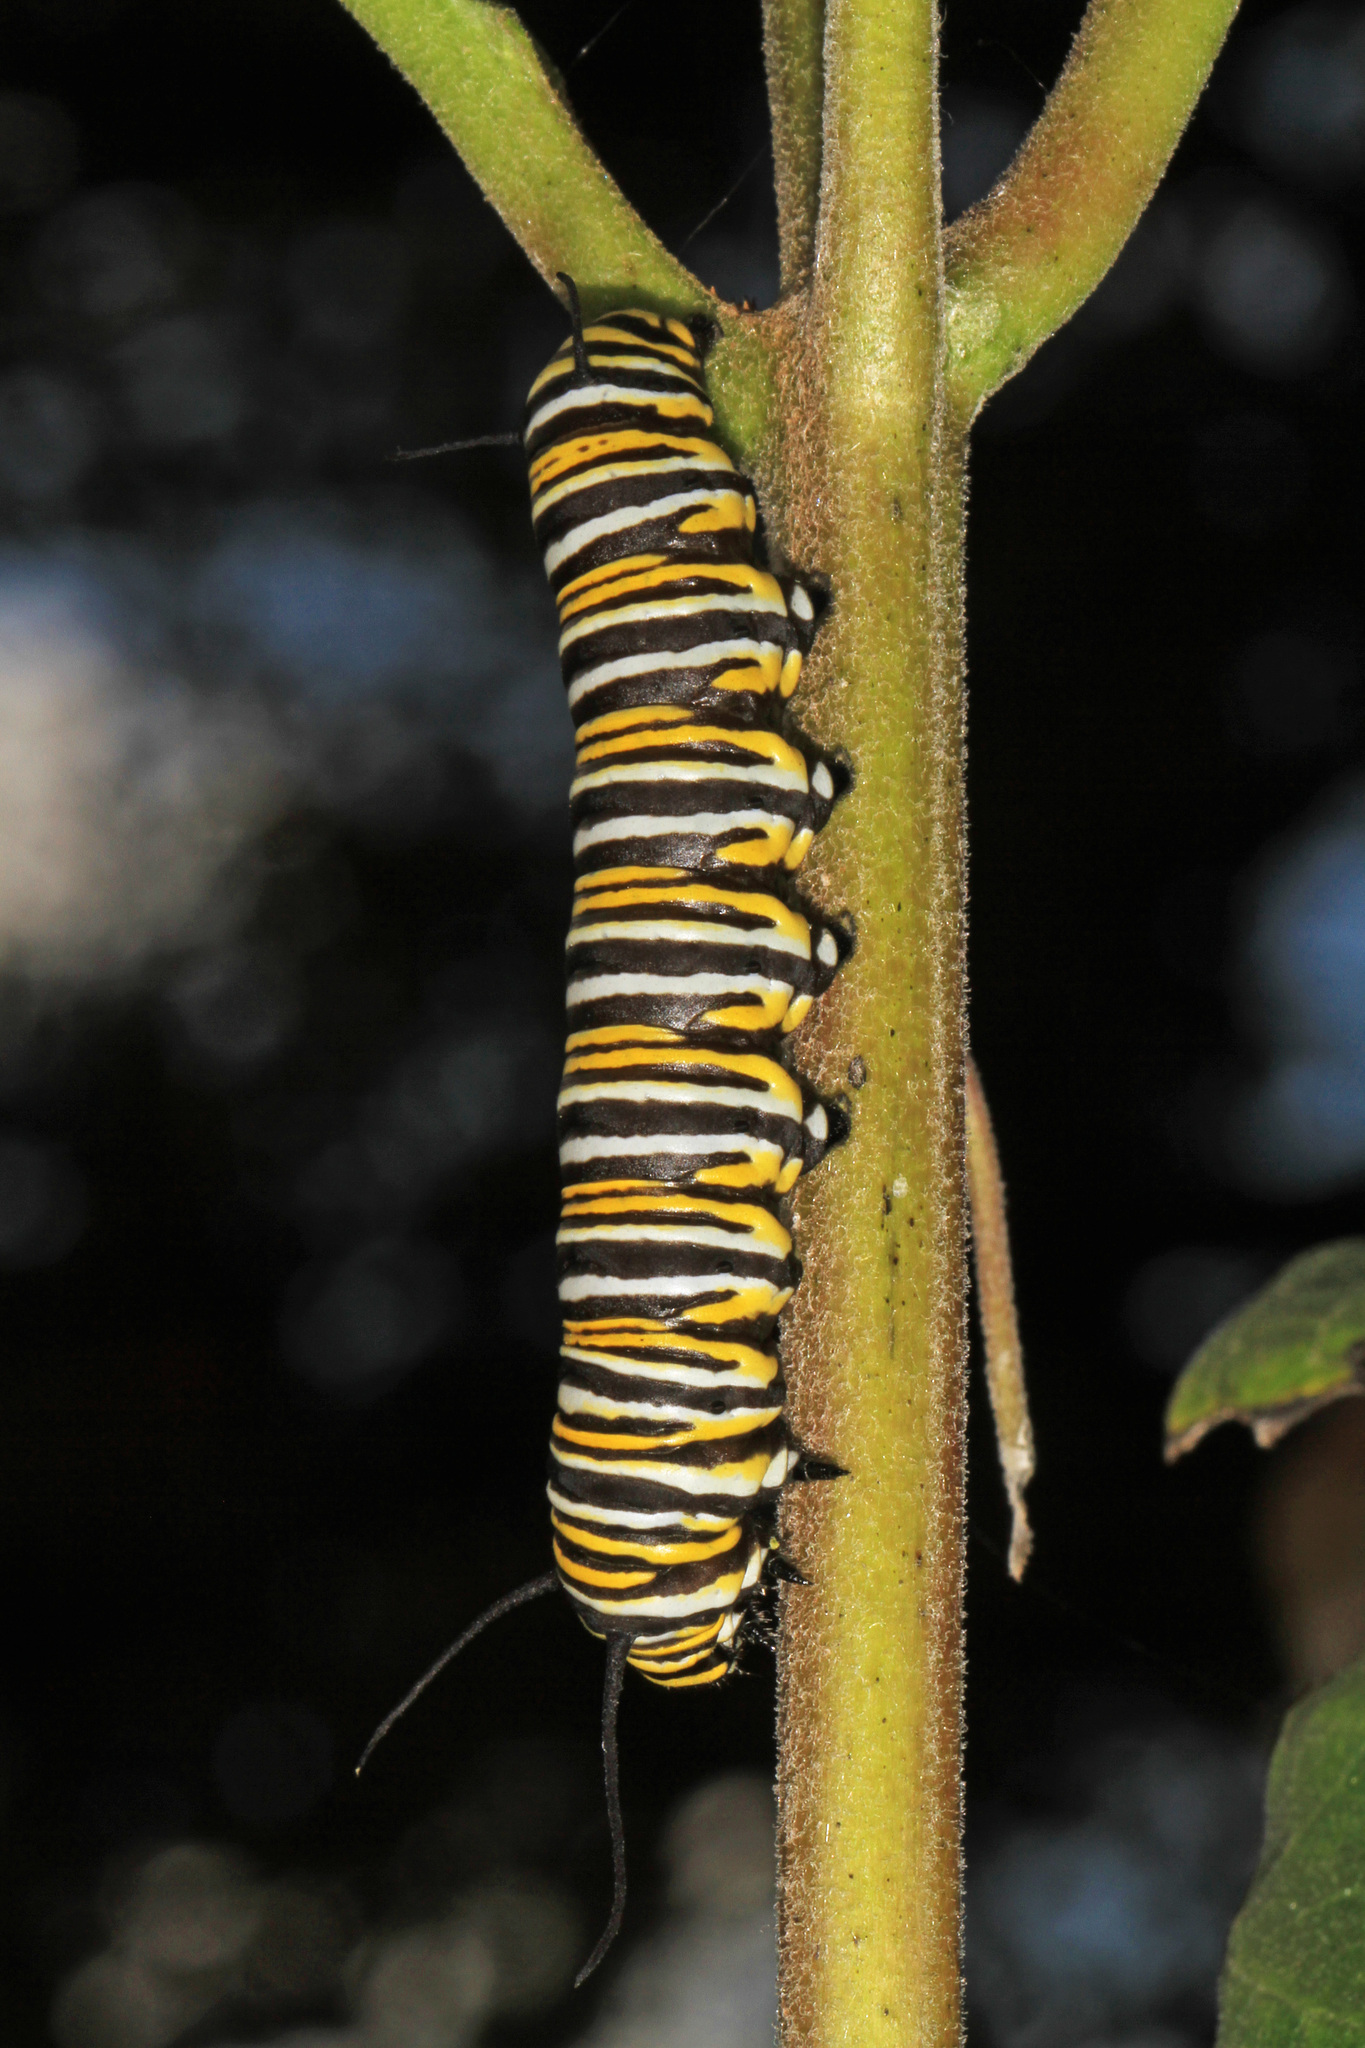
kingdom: Animalia
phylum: Arthropoda
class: Insecta
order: Lepidoptera
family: Nymphalidae
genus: Danaus
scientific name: Danaus plexippus
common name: Monarch
